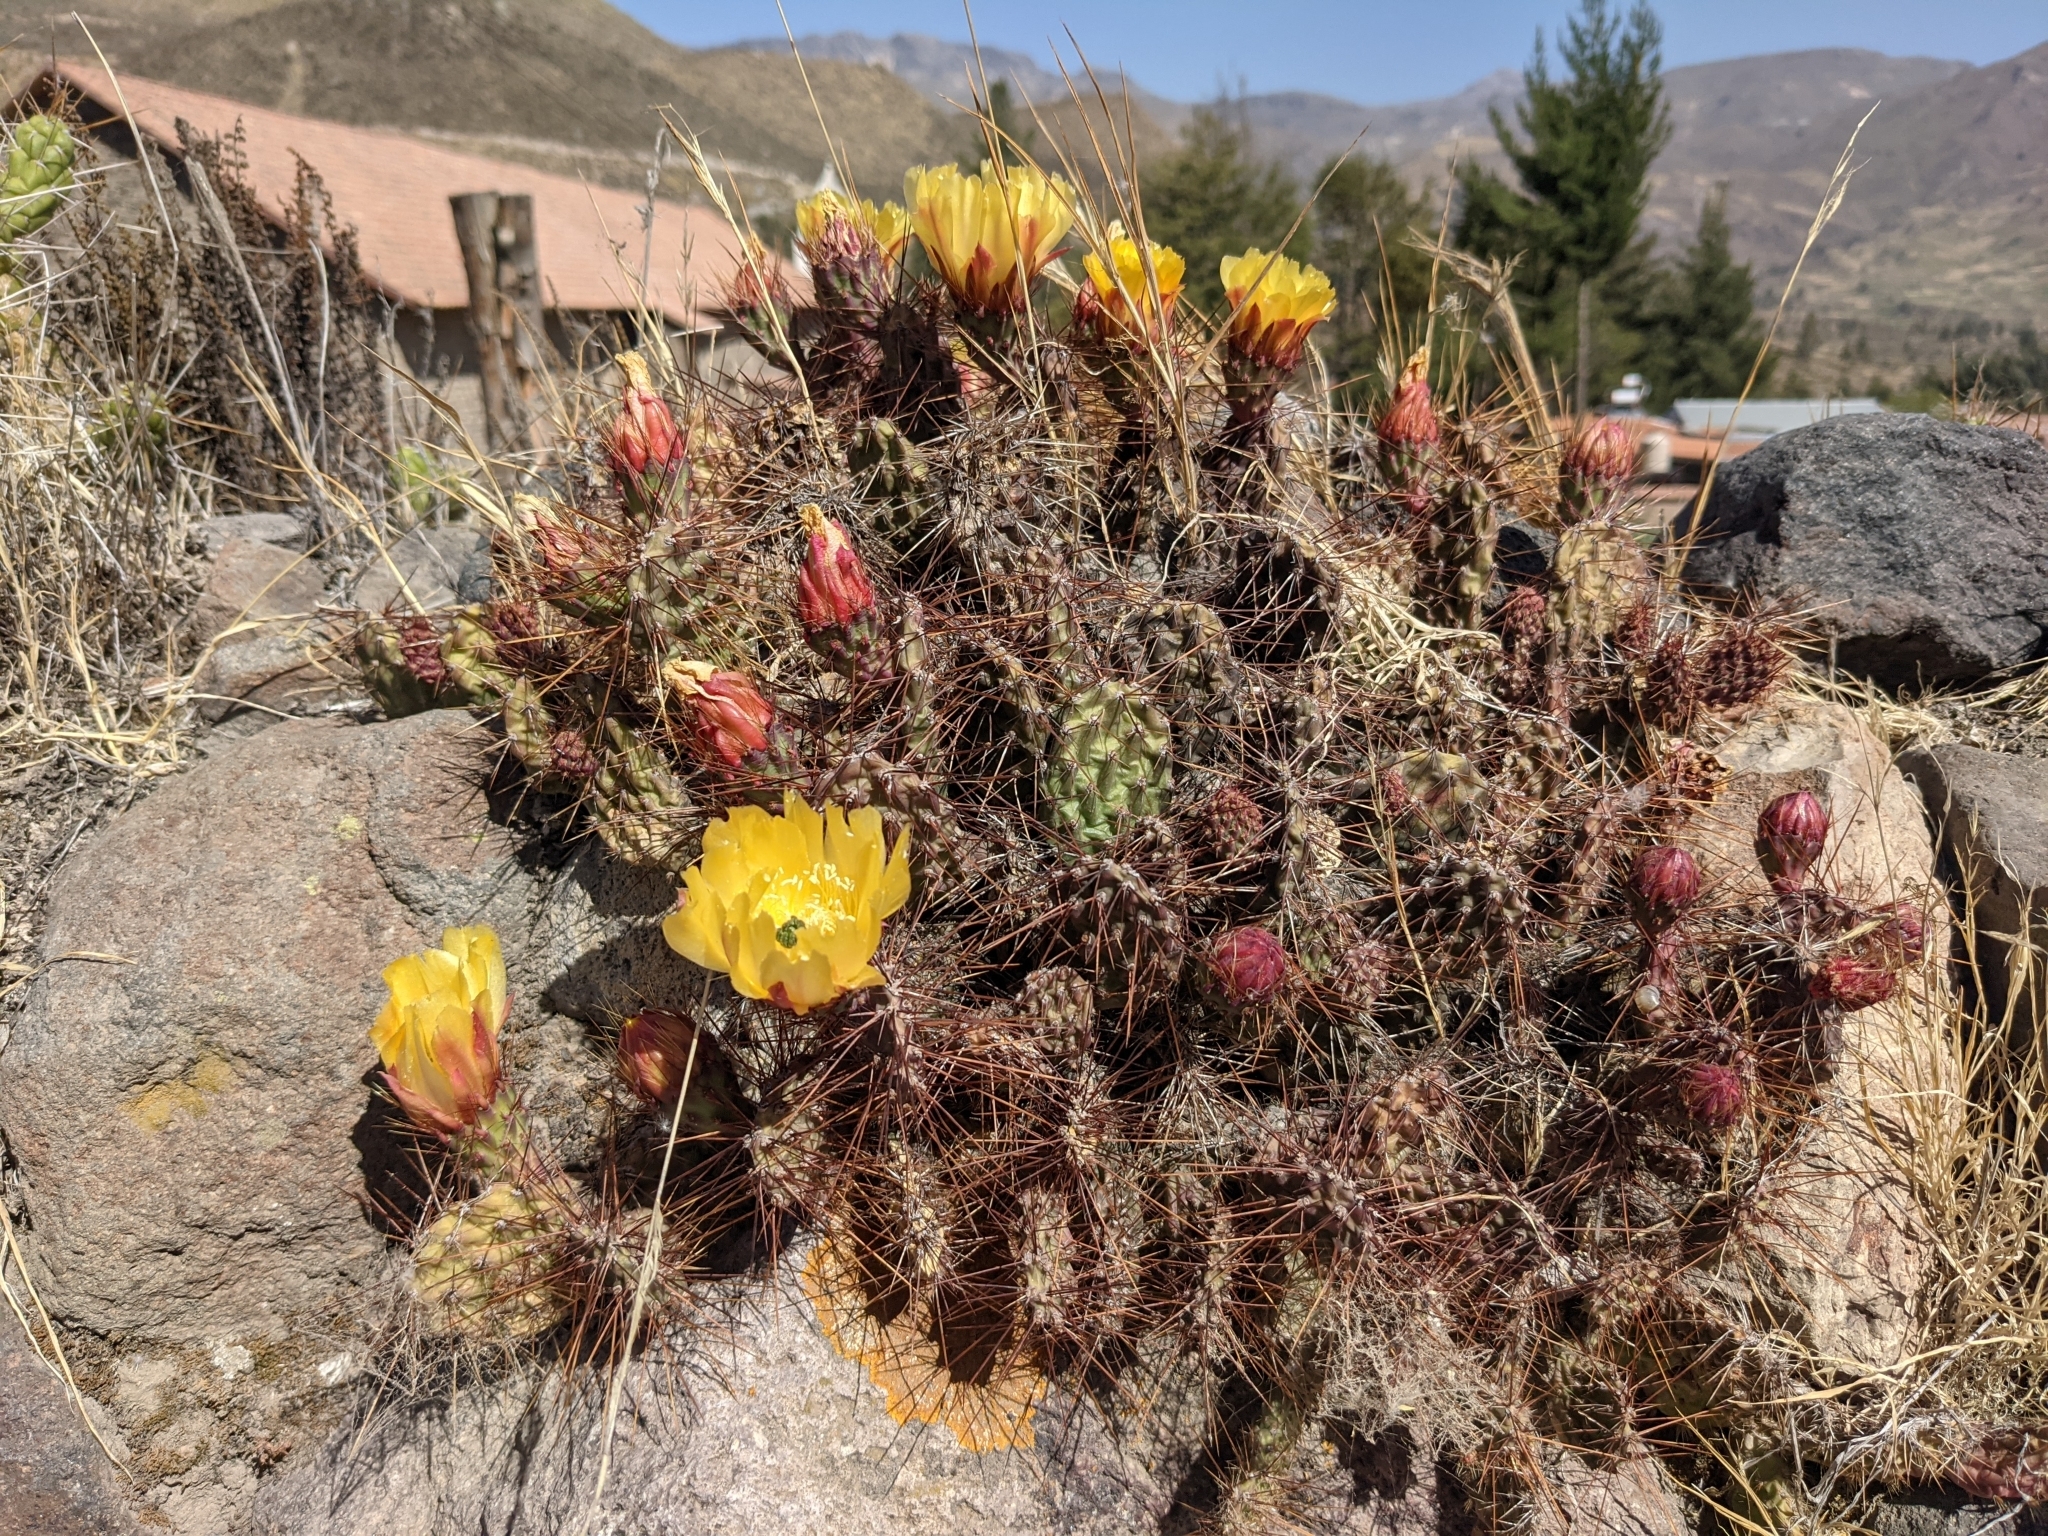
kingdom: Plantae
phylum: Tracheophyta
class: Magnoliopsida
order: Caryophyllales
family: Cactaceae
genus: Airampoa
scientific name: Airampoa soehrensii
